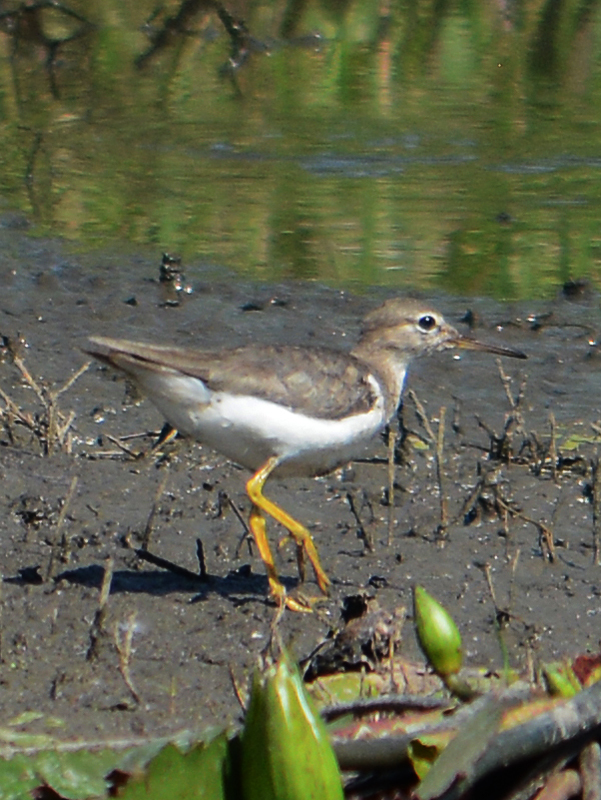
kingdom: Animalia
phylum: Chordata
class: Aves
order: Charadriiformes
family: Scolopacidae
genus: Actitis
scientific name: Actitis macularius
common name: Spotted sandpiper
